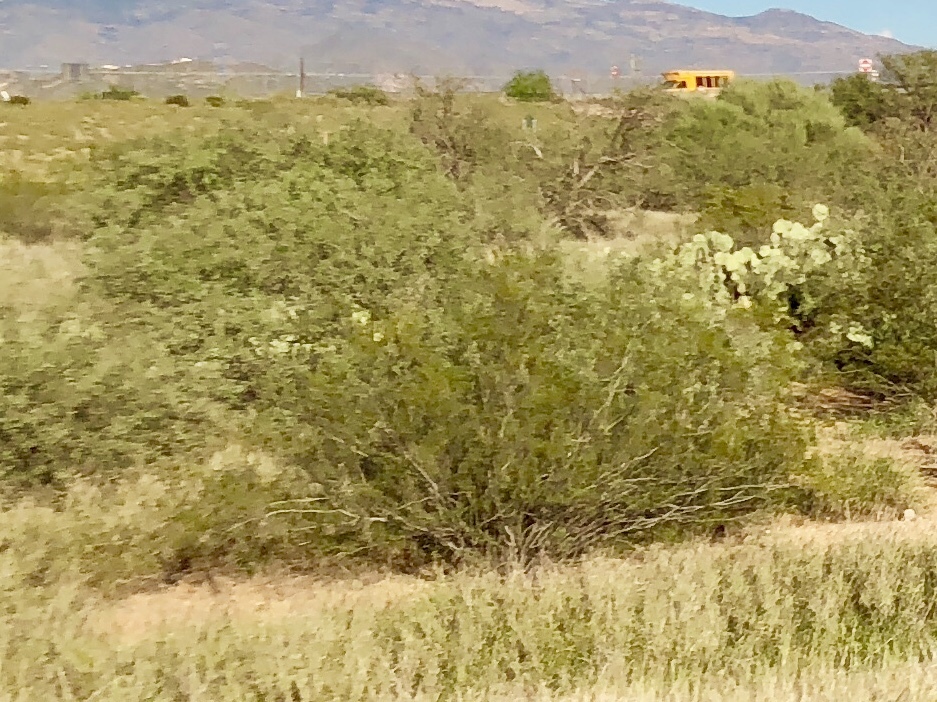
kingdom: Plantae
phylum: Tracheophyta
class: Magnoliopsida
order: Zygophyllales
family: Zygophyllaceae
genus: Larrea
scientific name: Larrea tridentata
